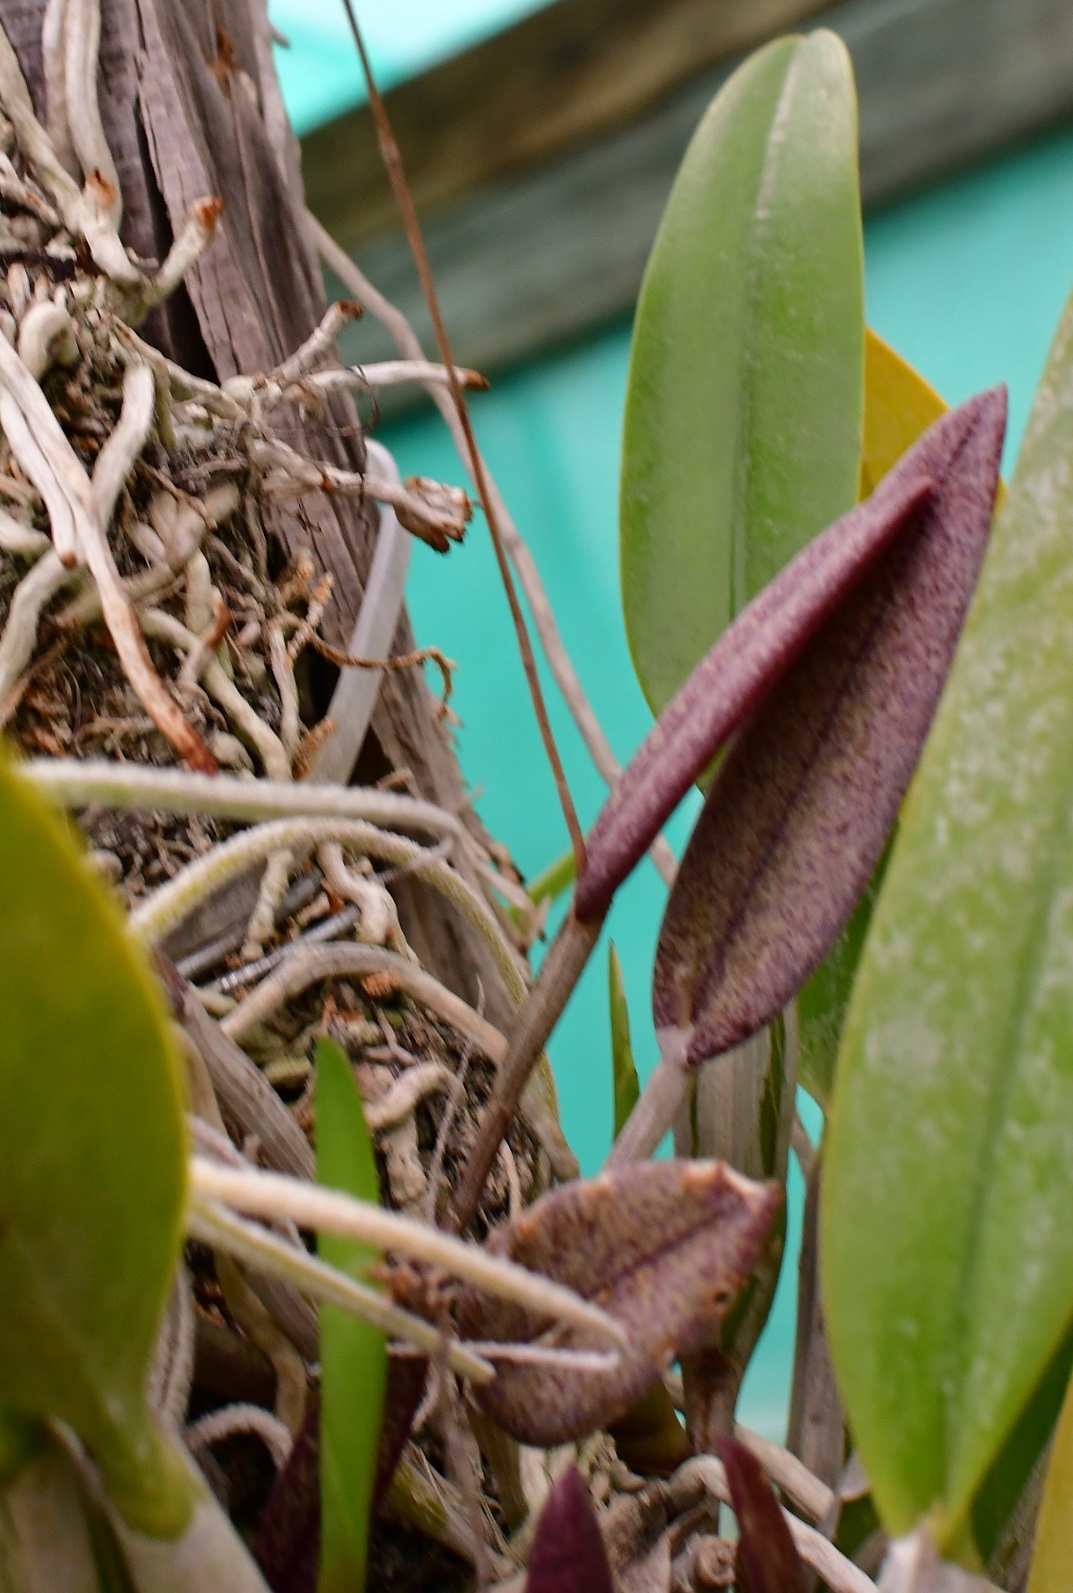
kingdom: Plantae
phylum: Tracheophyta
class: Liliopsida
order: Asparagales
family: Orchidaceae
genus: Domingoa
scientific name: Domingoa purpurea
